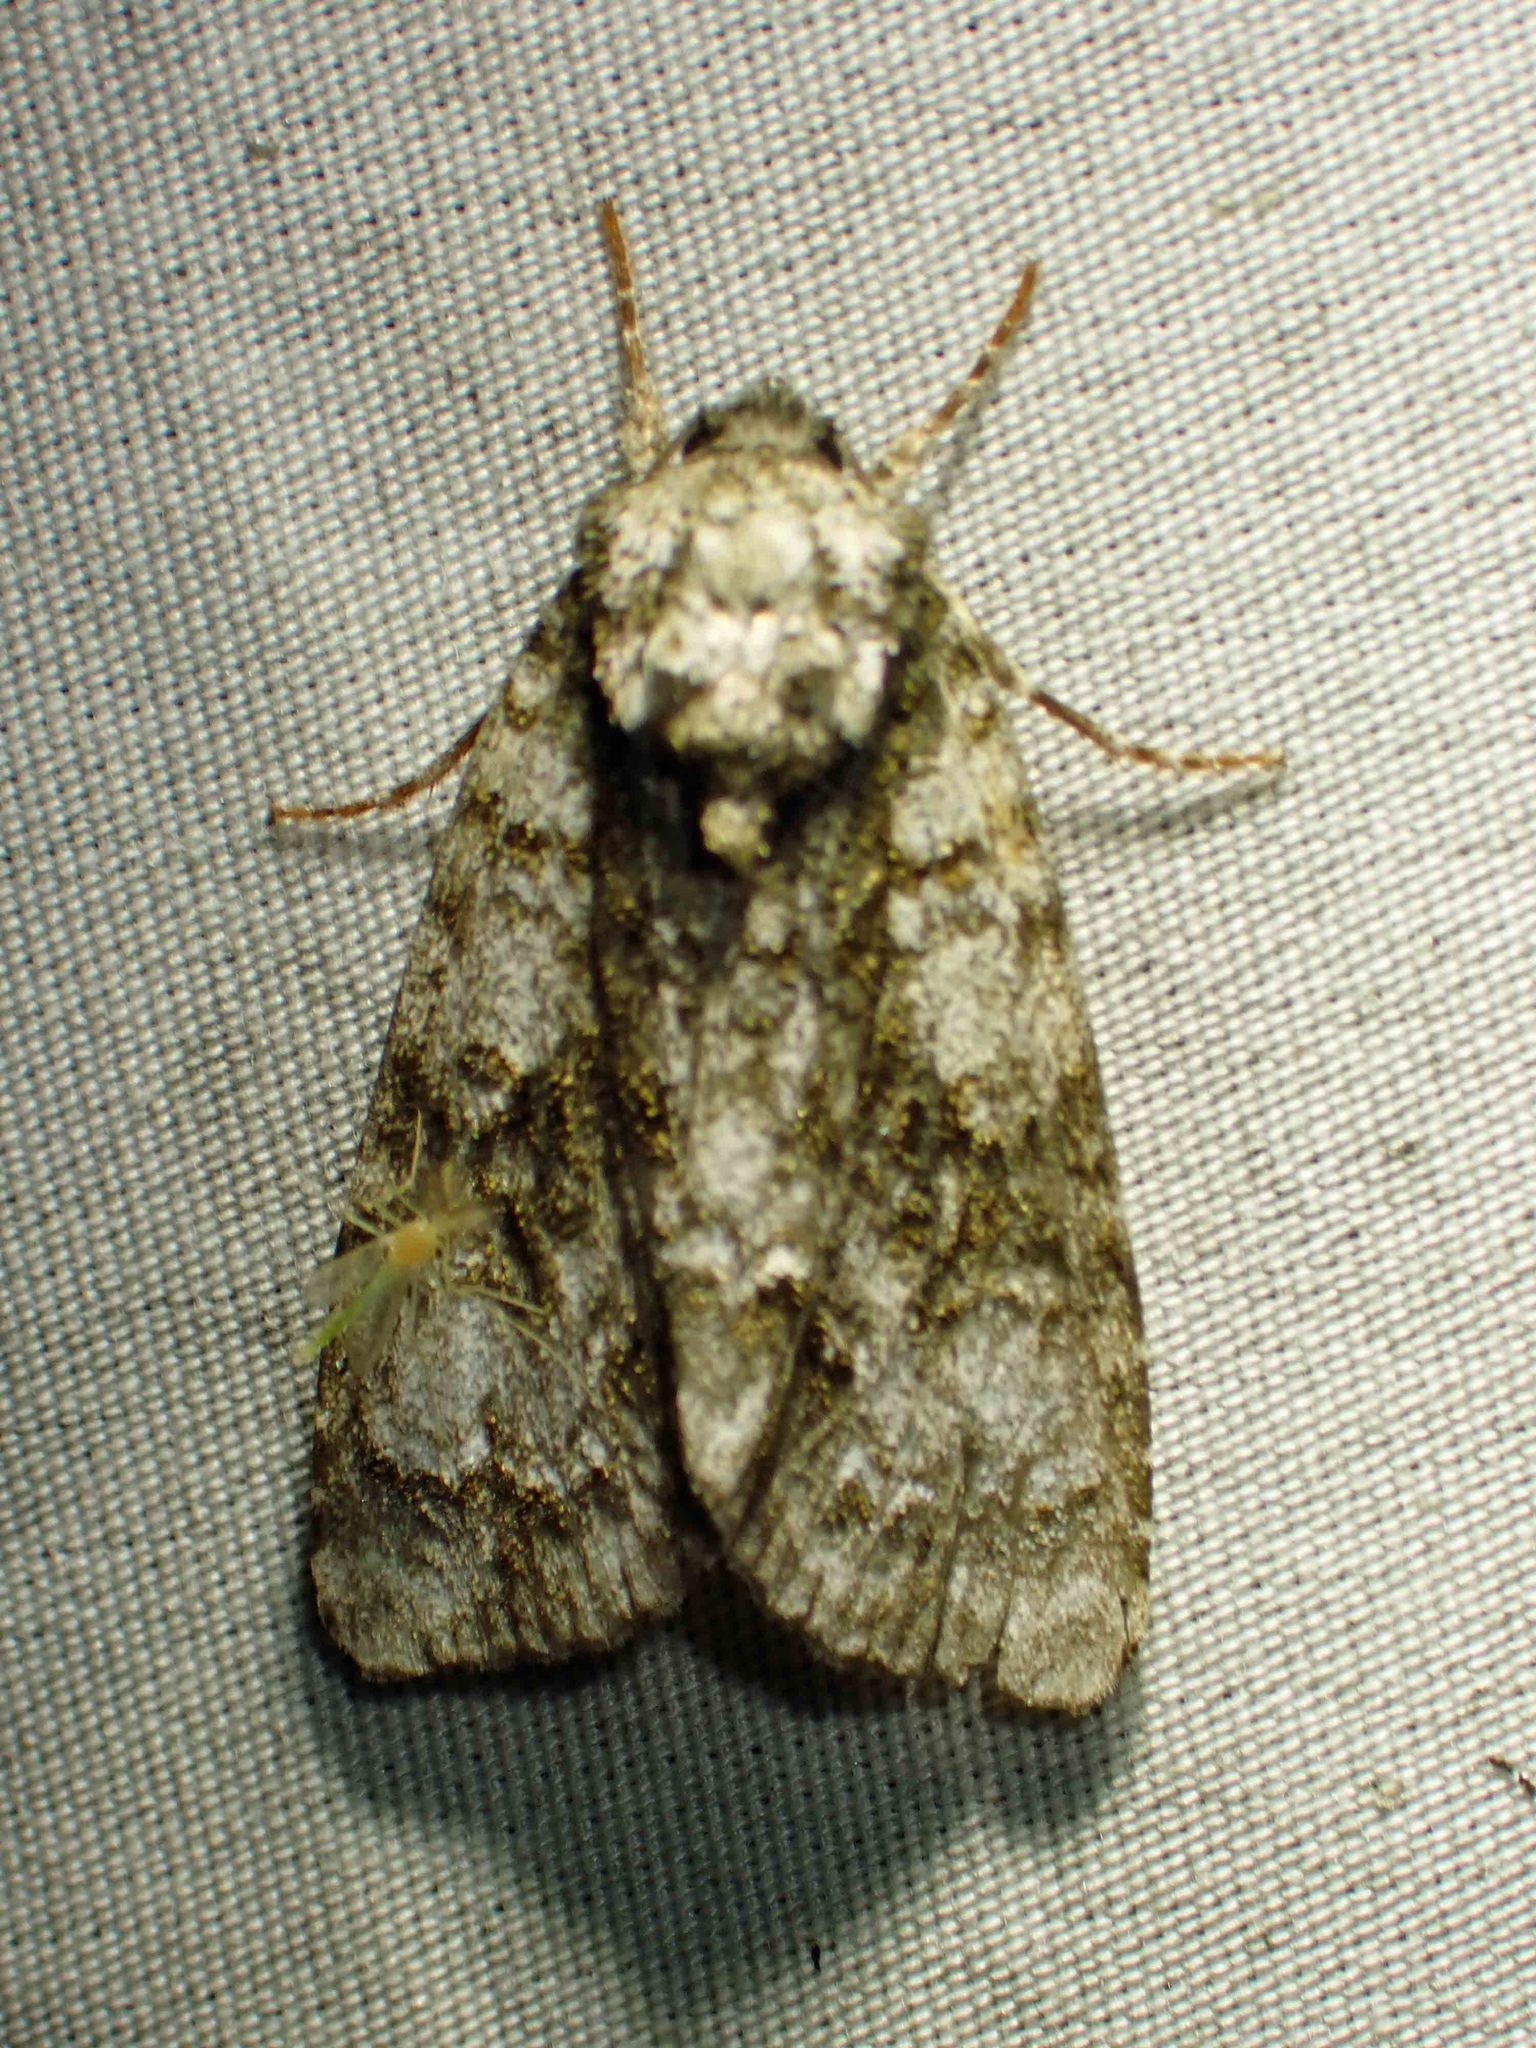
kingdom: Animalia
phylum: Arthropoda
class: Insecta
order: Lepidoptera
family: Noctuidae
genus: Acronicta
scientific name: Acronicta superans
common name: Splendid dagger
